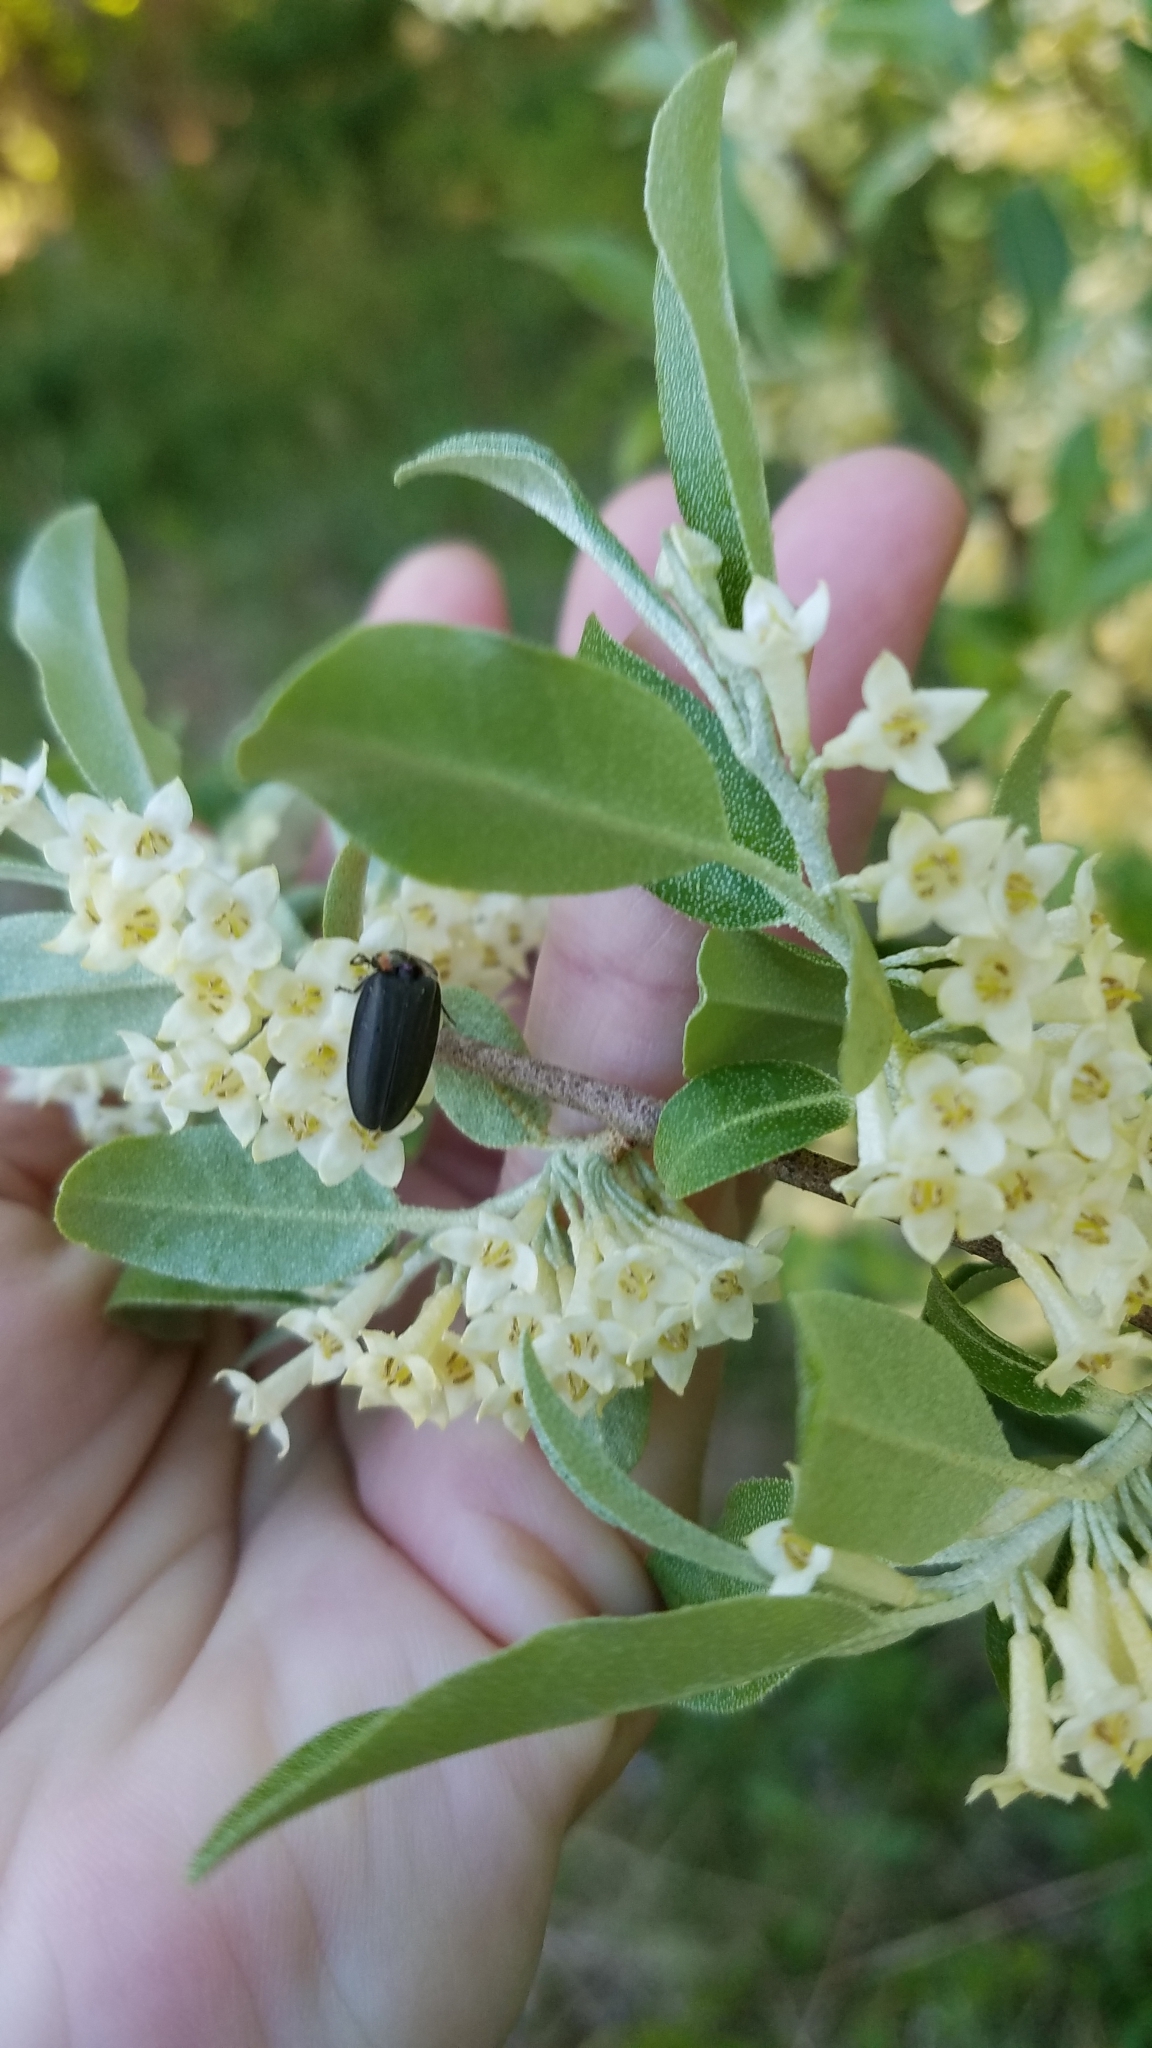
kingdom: Animalia
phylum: Arthropoda
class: Insecta
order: Coleoptera
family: Lampyridae
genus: Photinus
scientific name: Photinus corrusca
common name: Winter firefly
